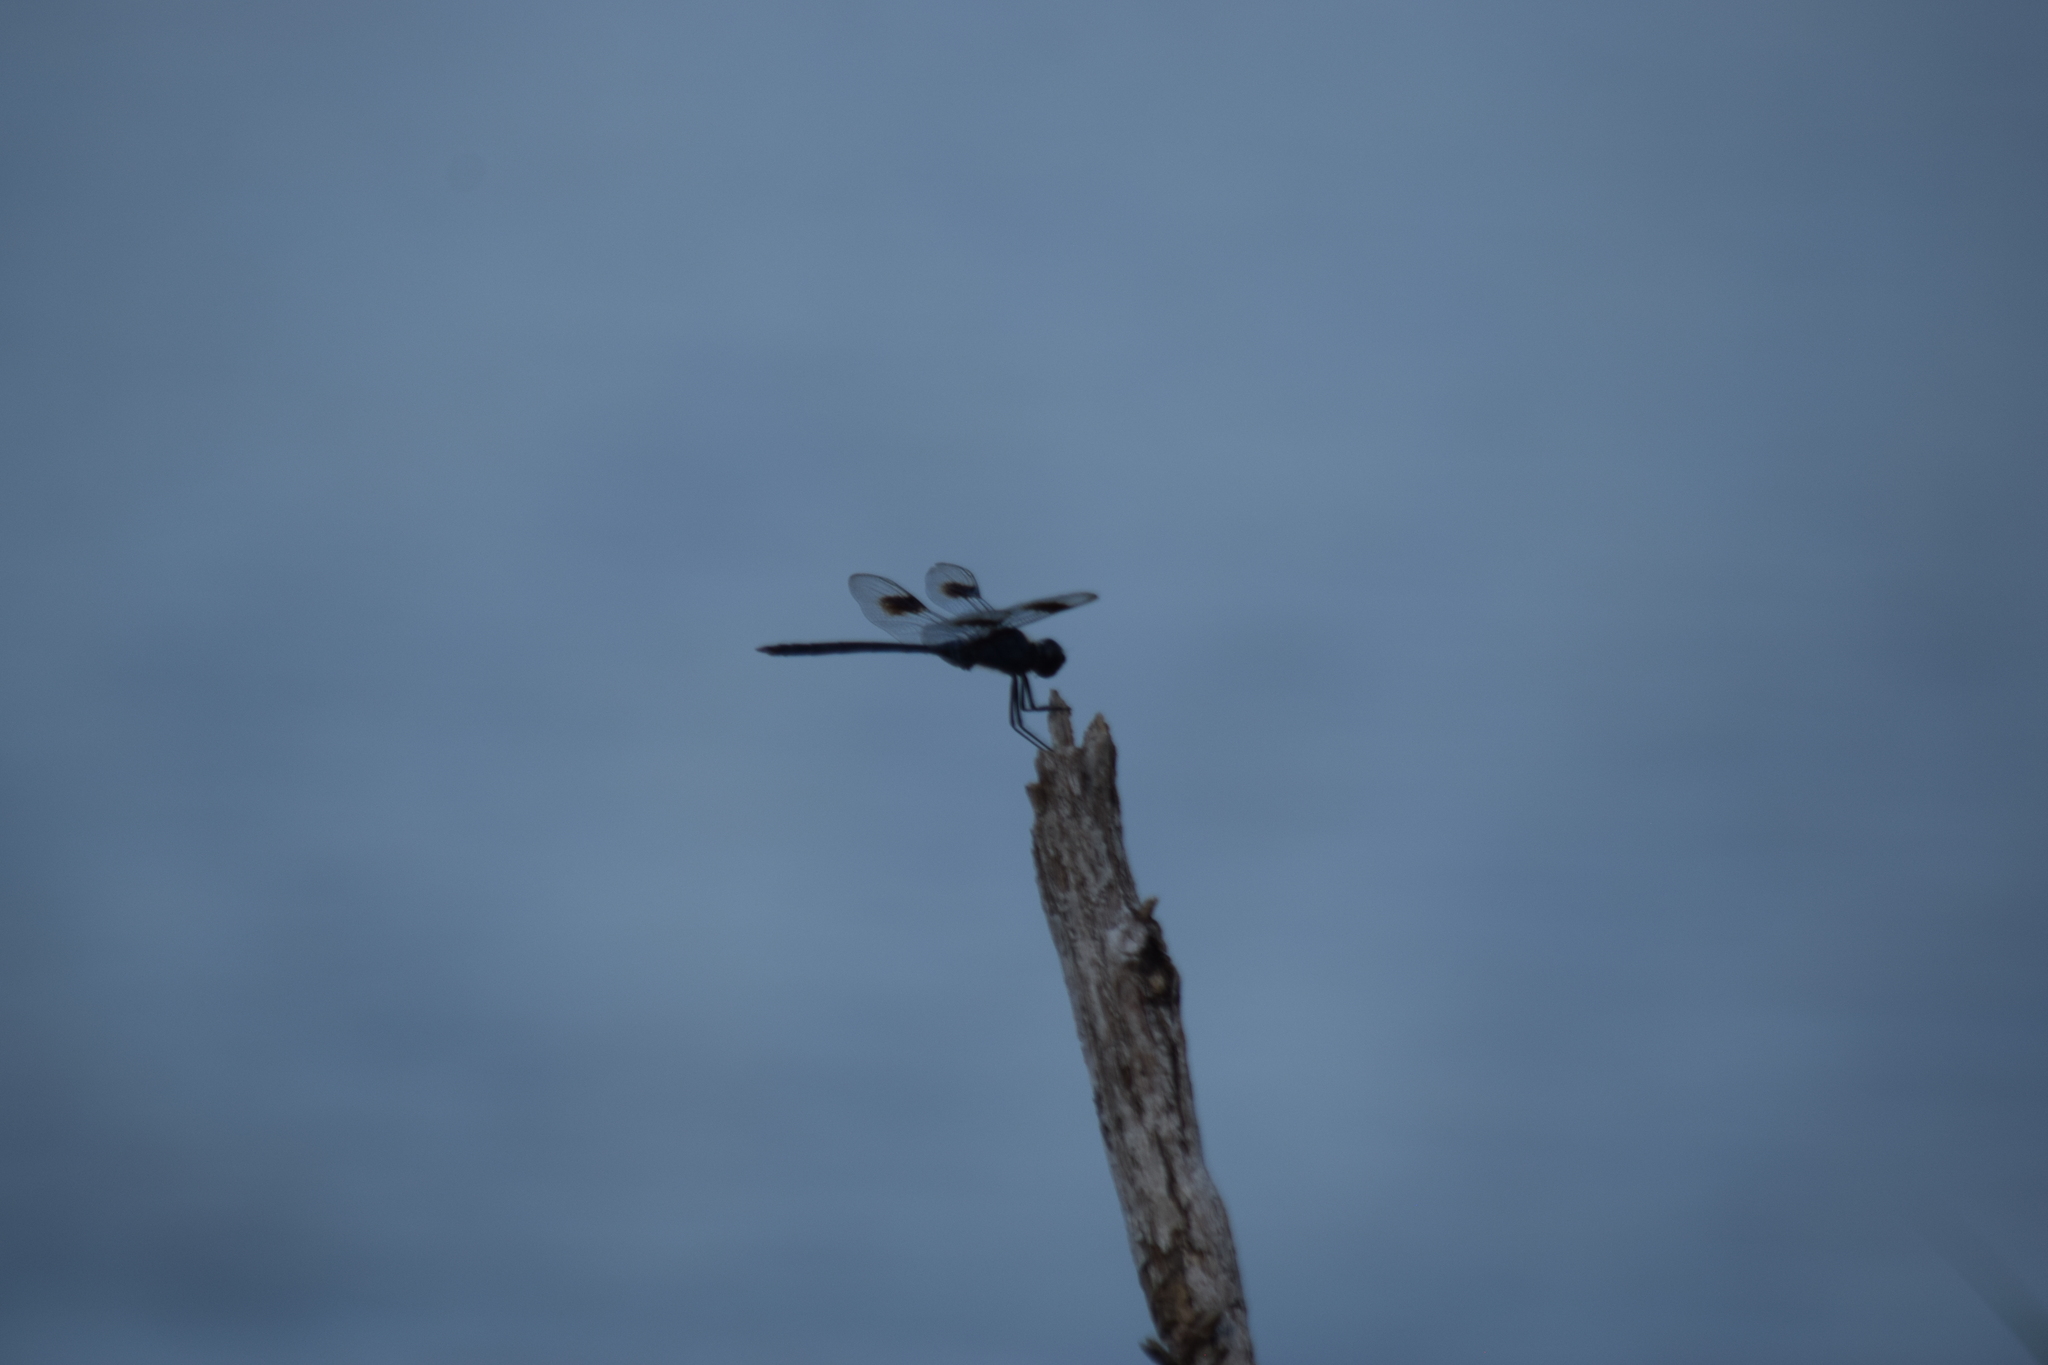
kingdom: Animalia
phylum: Arthropoda
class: Insecta
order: Odonata
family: Libellulidae
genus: Brachymesia
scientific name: Brachymesia gravida
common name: Four-spotted pennant
